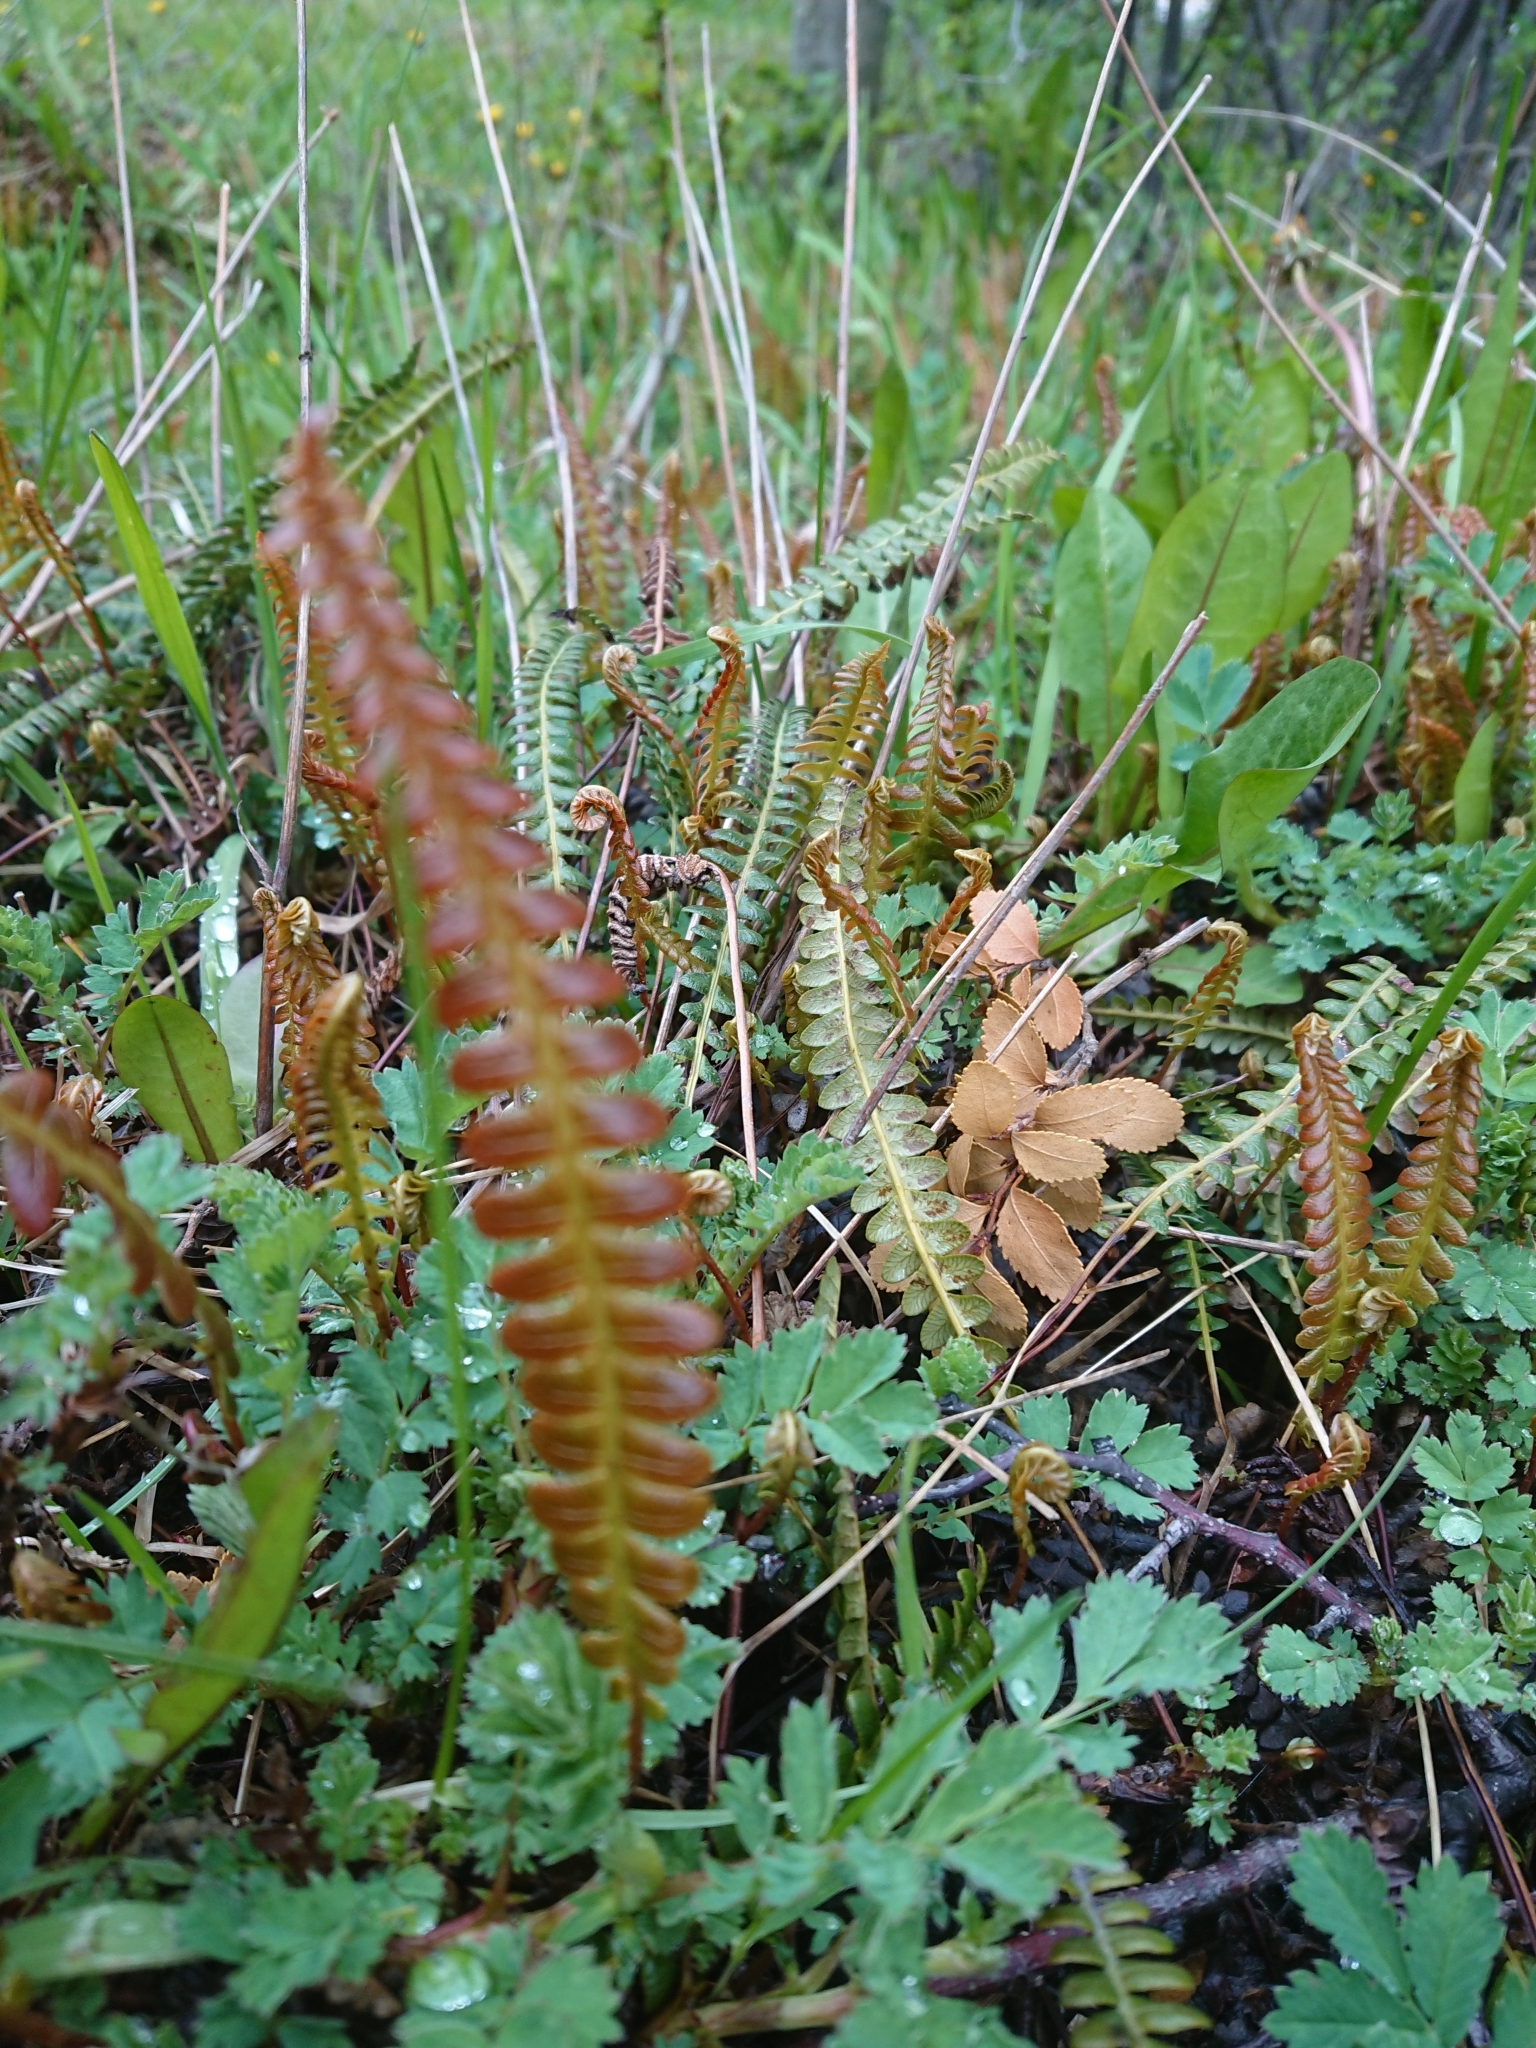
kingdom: Plantae
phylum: Tracheophyta
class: Polypodiopsida
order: Polypodiales
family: Blechnaceae
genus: Austroblechnum
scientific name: Austroblechnum penna-marina
